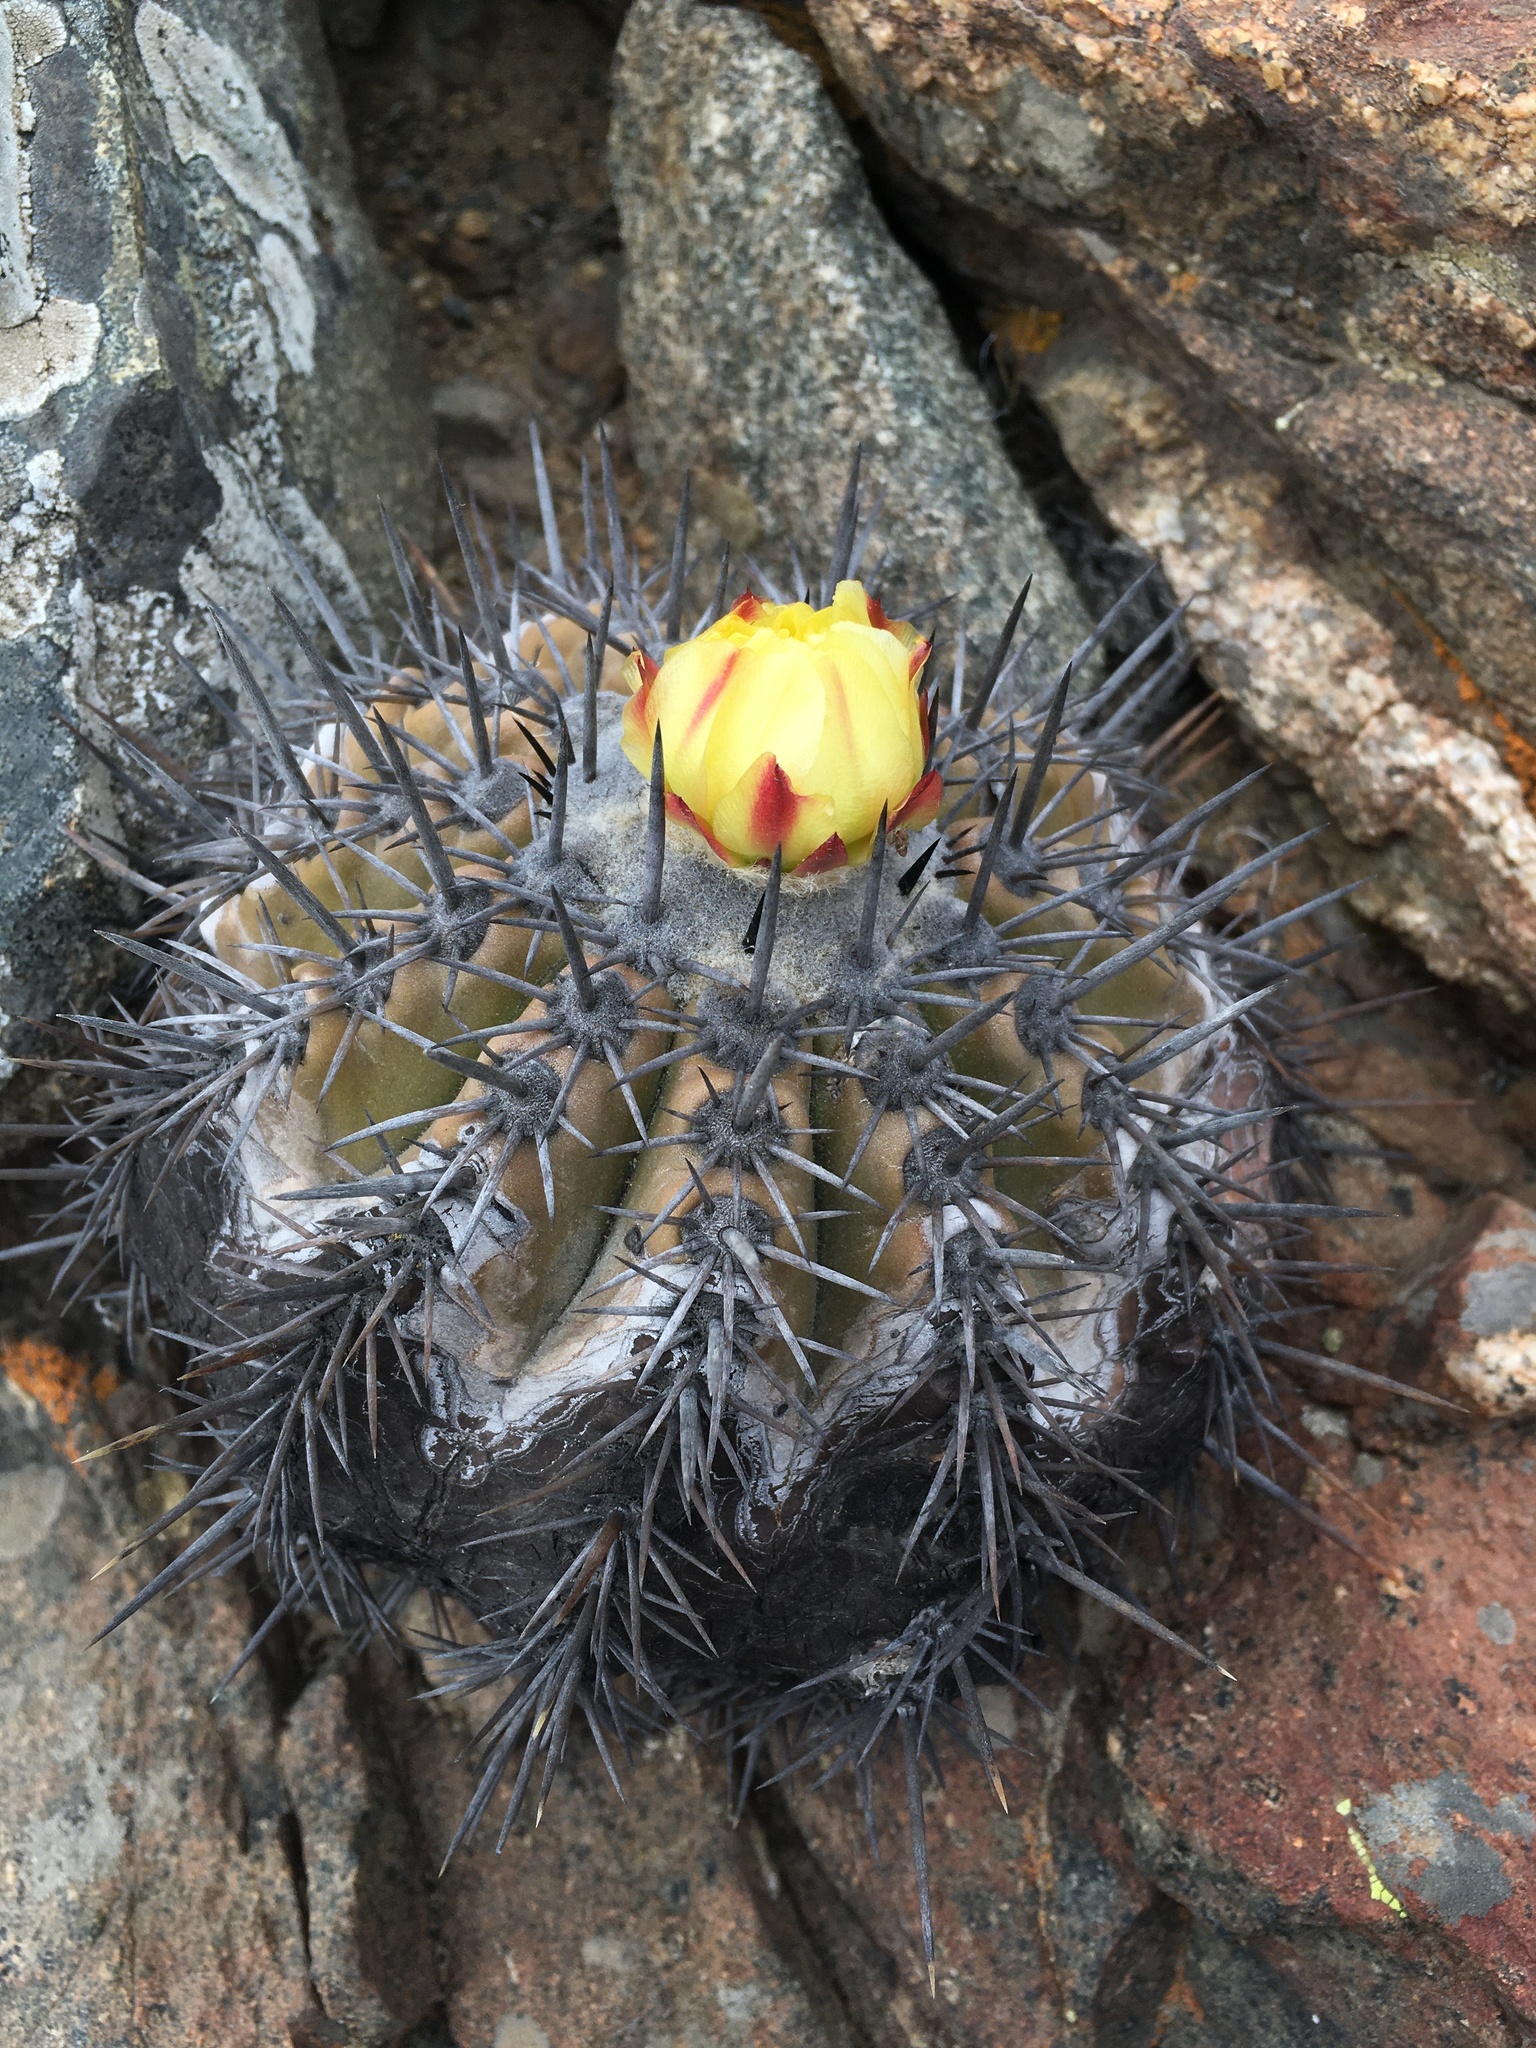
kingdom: Plantae
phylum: Tracheophyta
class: Magnoliopsida
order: Caryophyllales
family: Cactaceae
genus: Copiapoa
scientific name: Copiapoa echinoides
